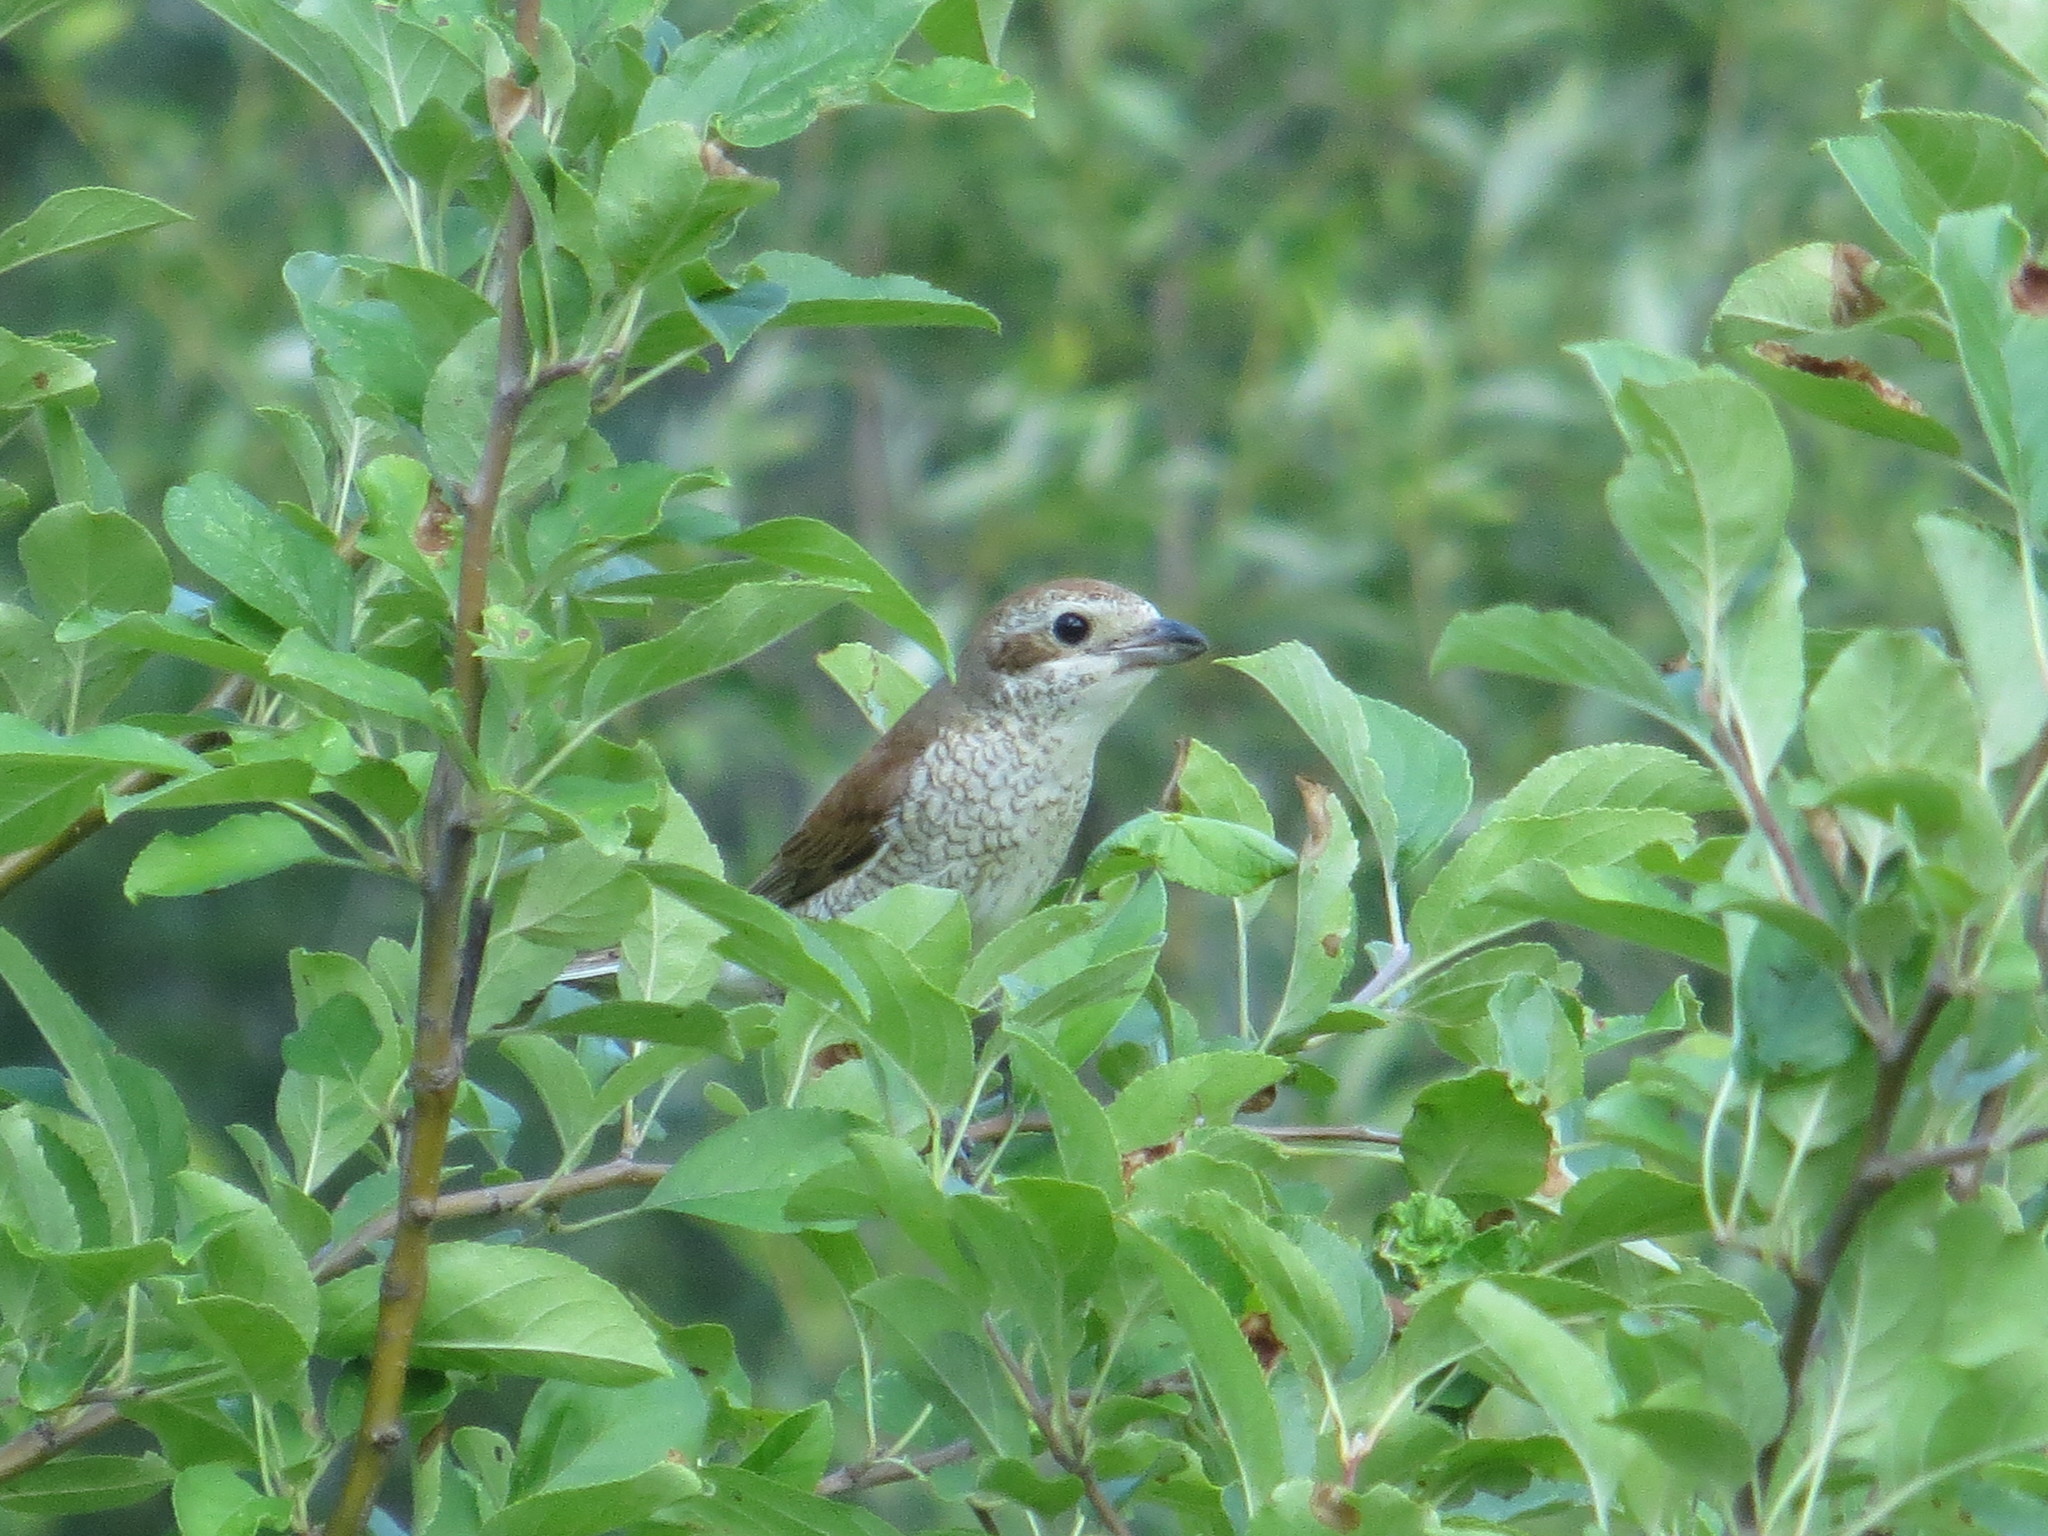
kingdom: Animalia
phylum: Chordata
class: Aves
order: Passeriformes
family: Laniidae
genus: Lanius
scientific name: Lanius collurio
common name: Red-backed shrike
